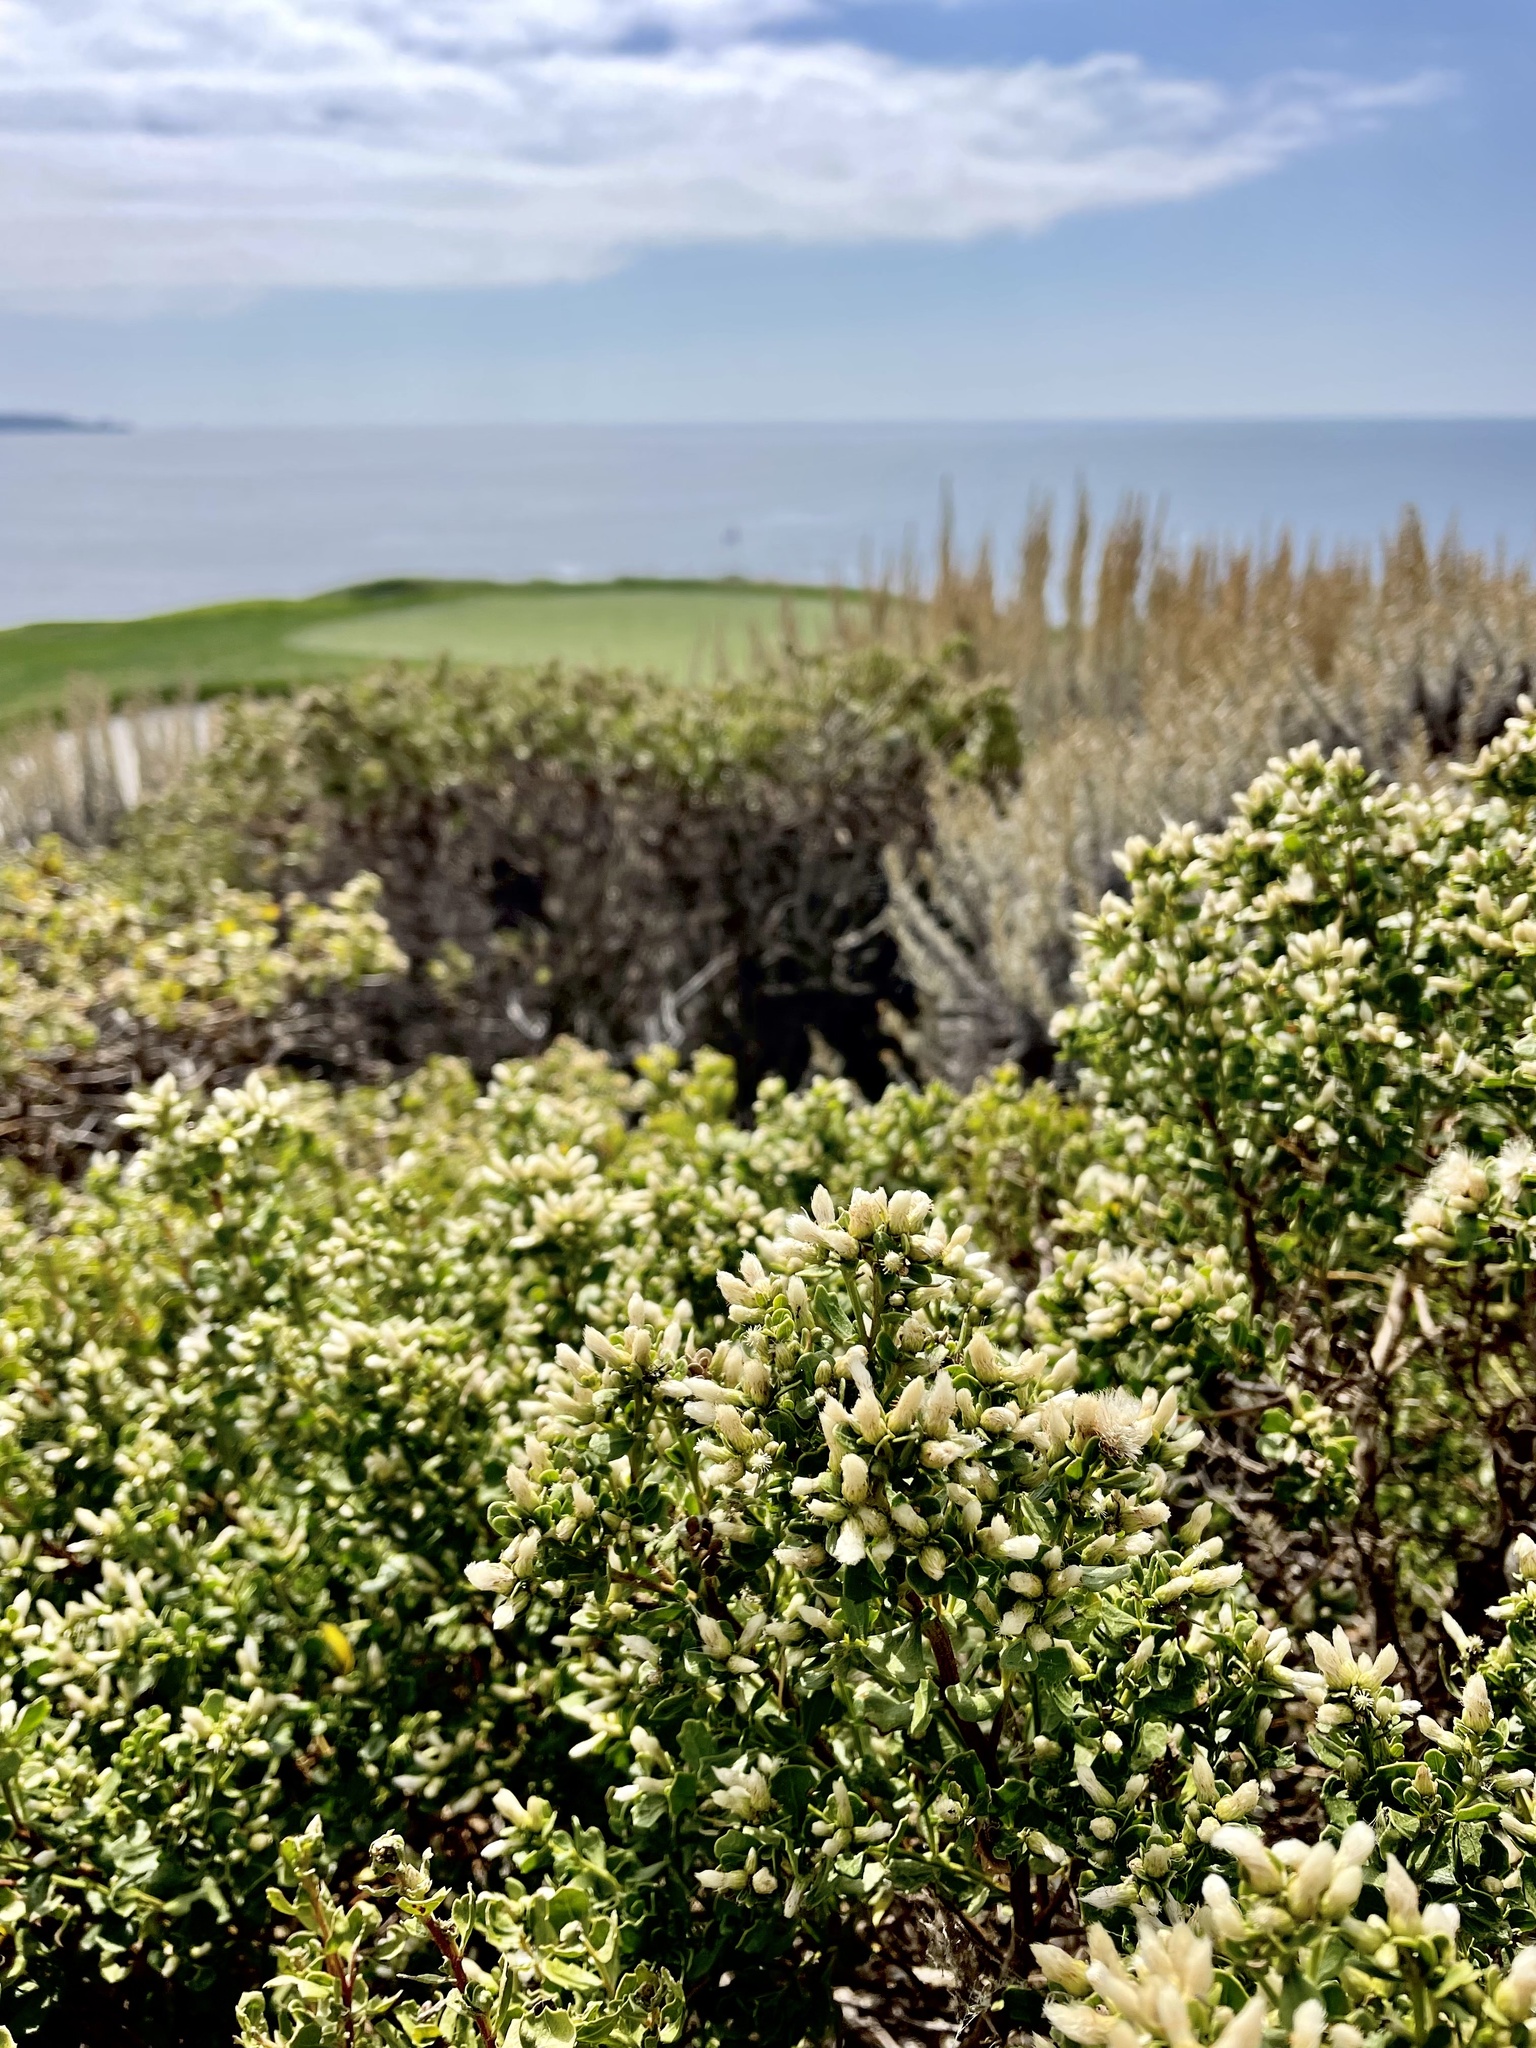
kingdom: Plantae
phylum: Tracheophyta
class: Magnoliopsida
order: Asterales
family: Asteraceae
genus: Baccharis
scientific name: Baccharis pilularis
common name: Coyotebrush
